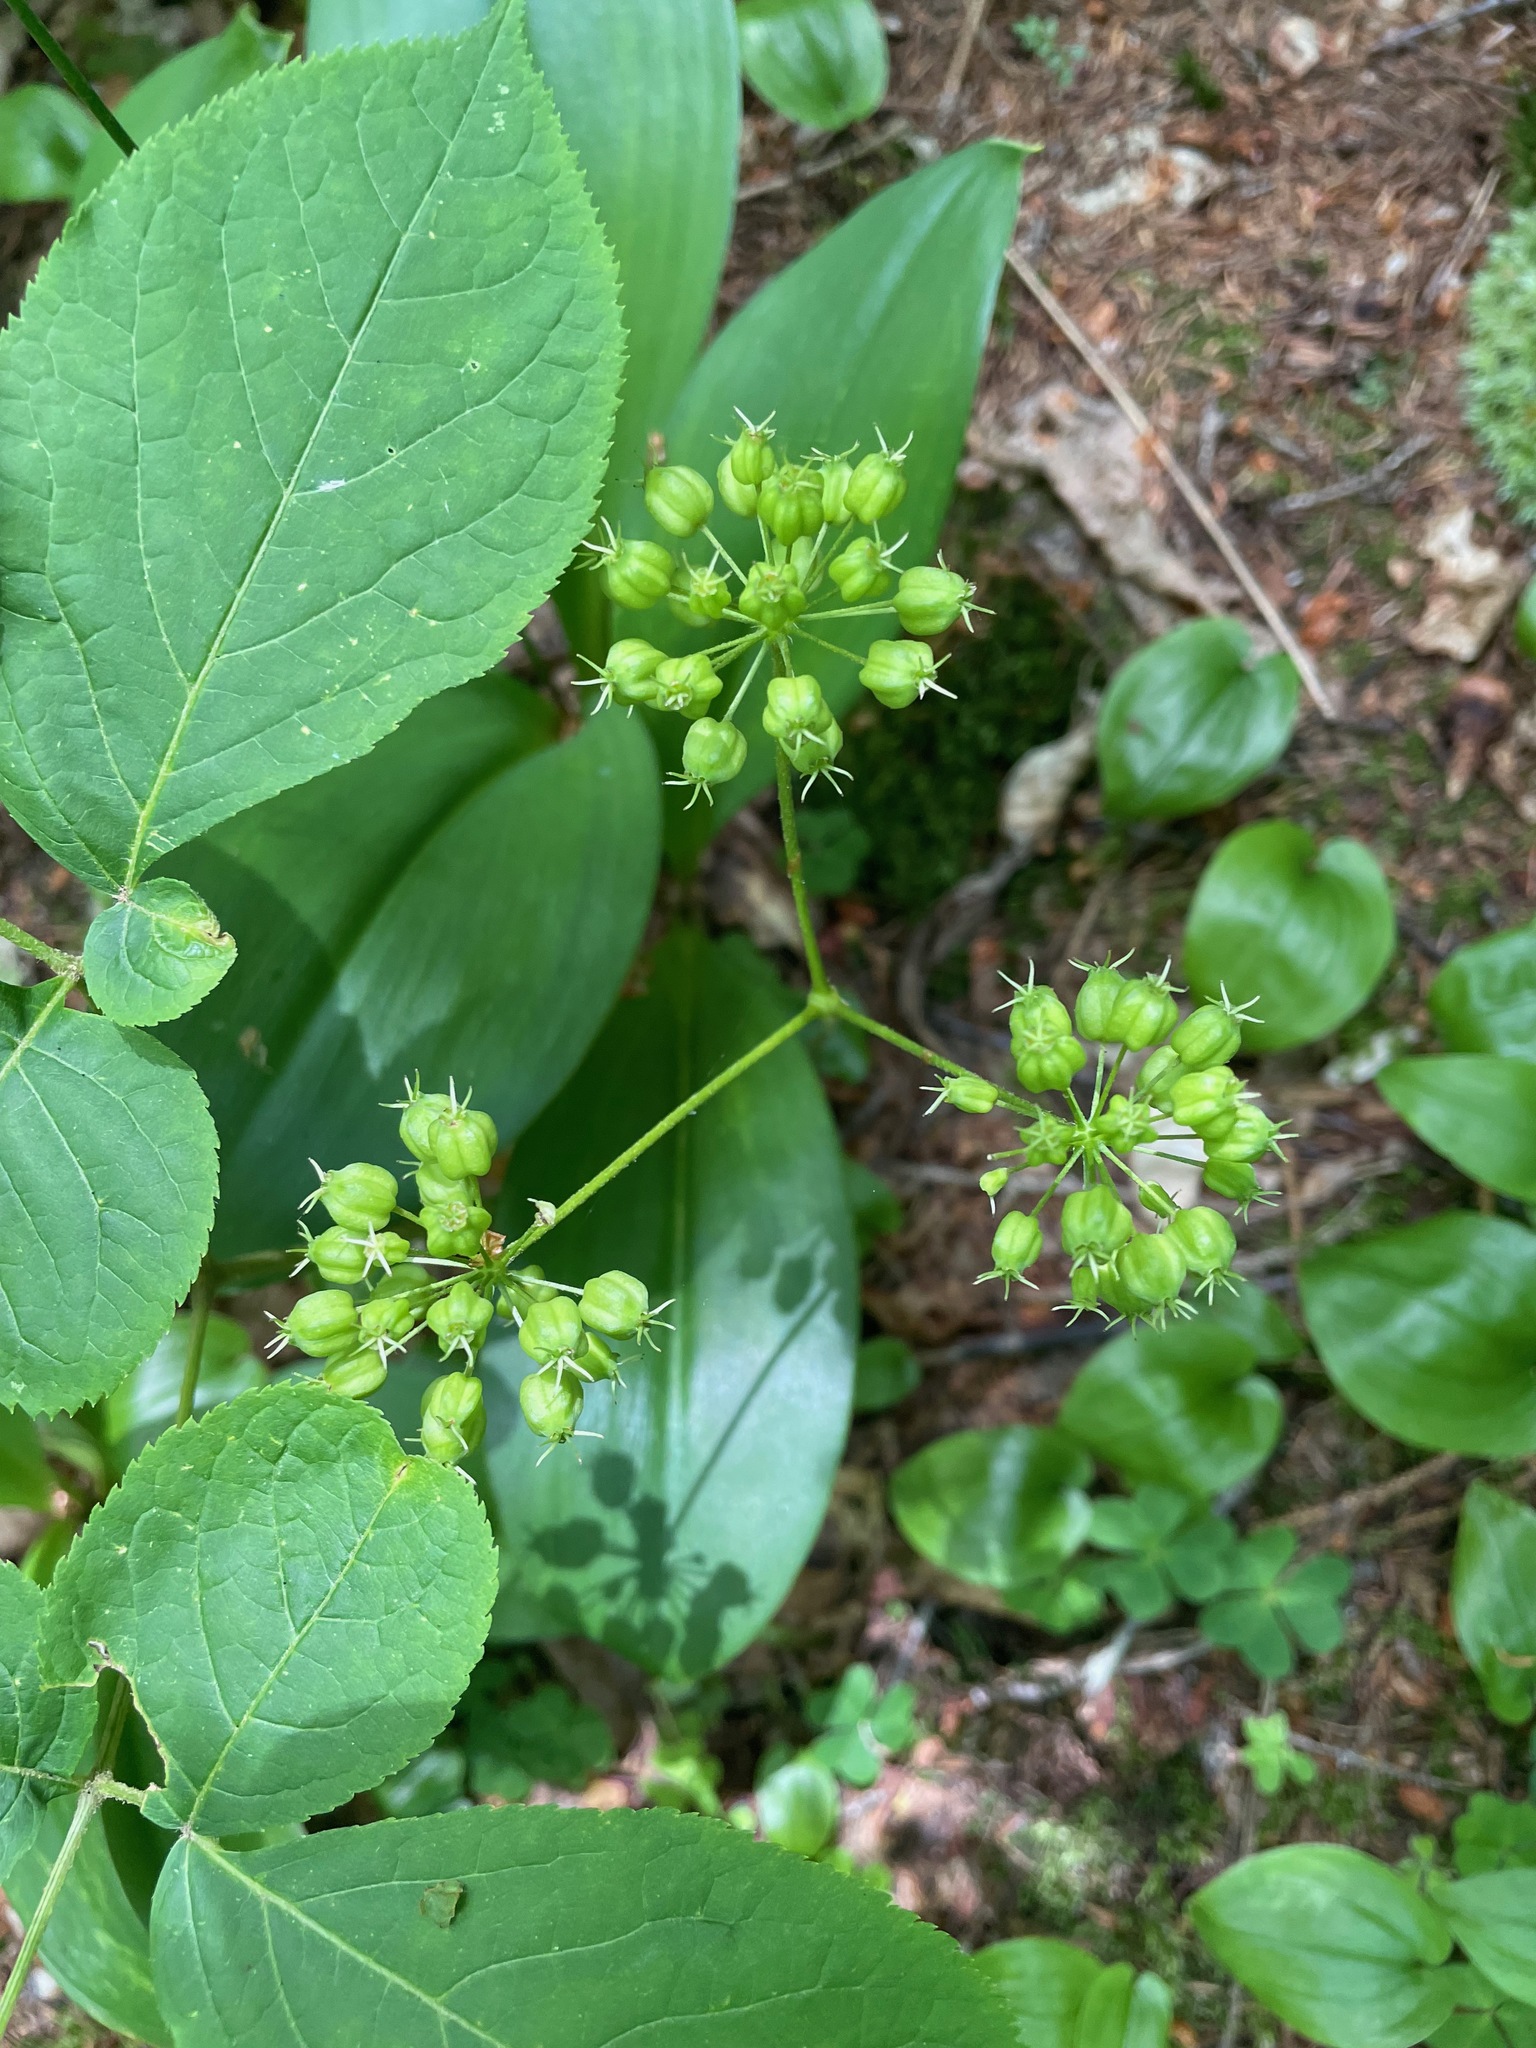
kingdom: Plantae
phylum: Tracheophyta
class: Magnoliopsida
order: Apiales
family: Araliaceae
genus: Aralia
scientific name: Aralia nudicaulis
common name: Wild sarsaparilla
